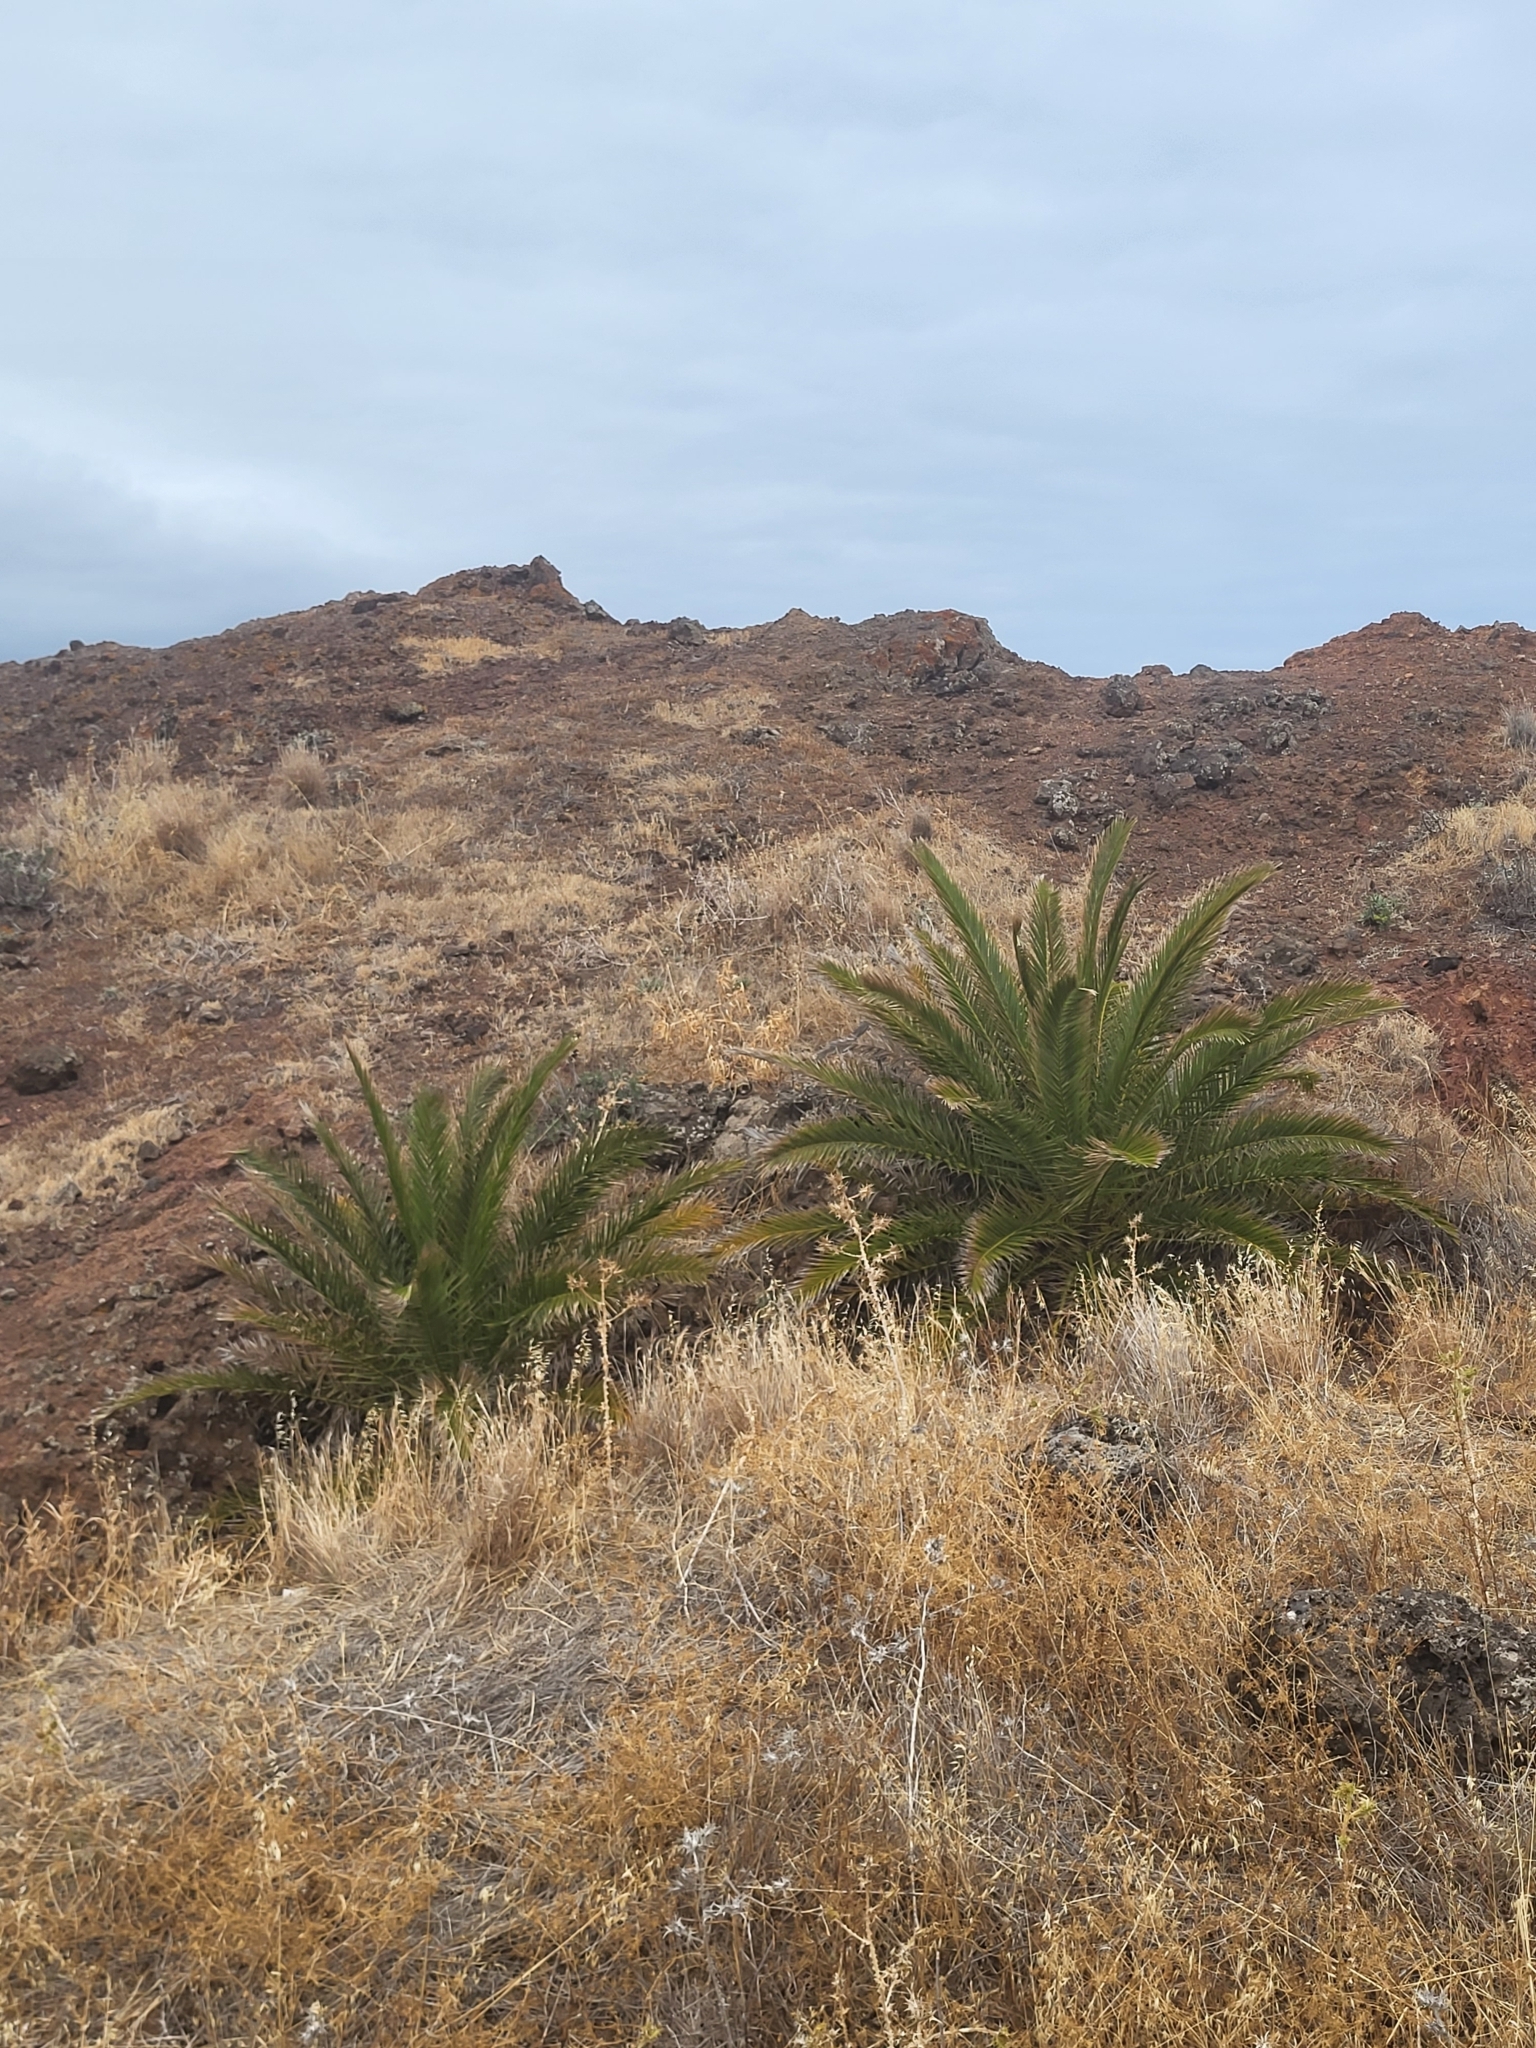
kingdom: Plantae
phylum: Tracheophyta
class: Liliopsida
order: Arecales
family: Arecaceae
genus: Phoenix
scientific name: Phoenix canariensis
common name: Canary island date palm
